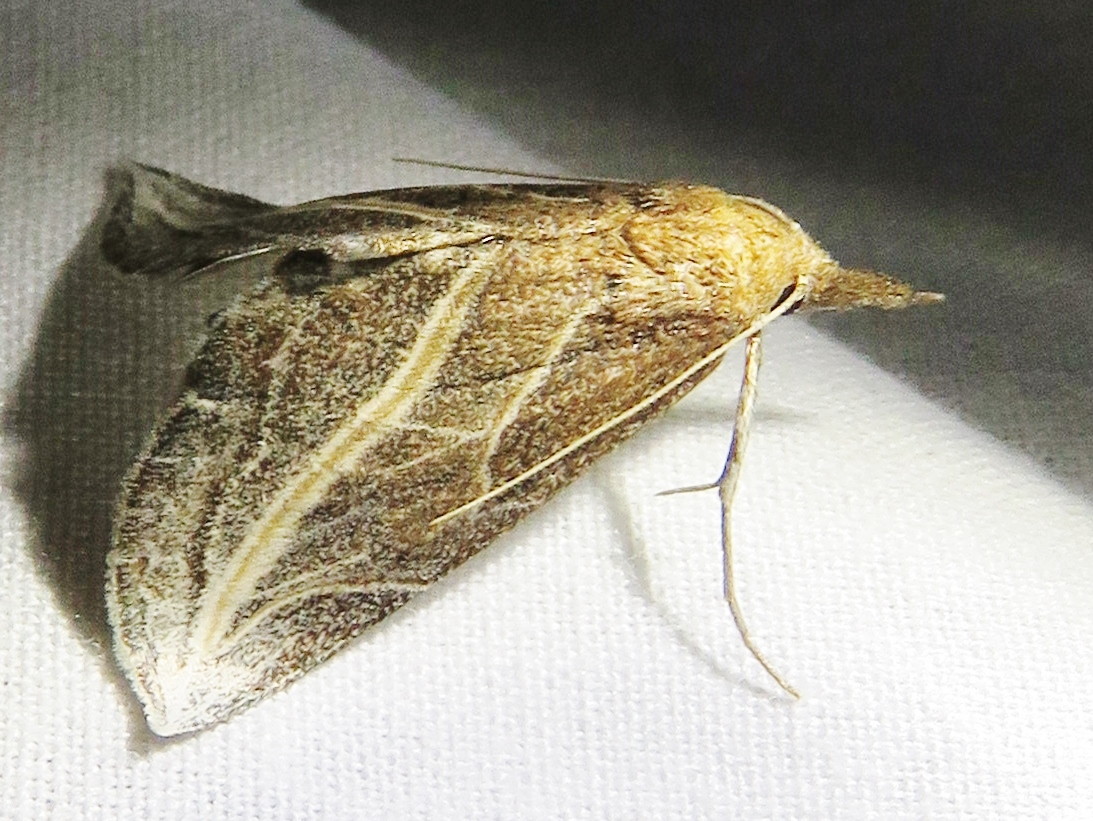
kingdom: Animalia
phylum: Arthropoda
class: Insecta
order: Lepidoptera
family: Erebidae
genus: Phyprosopus
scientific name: Phyprosopus callitrichoides
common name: Curved-lined owlet
